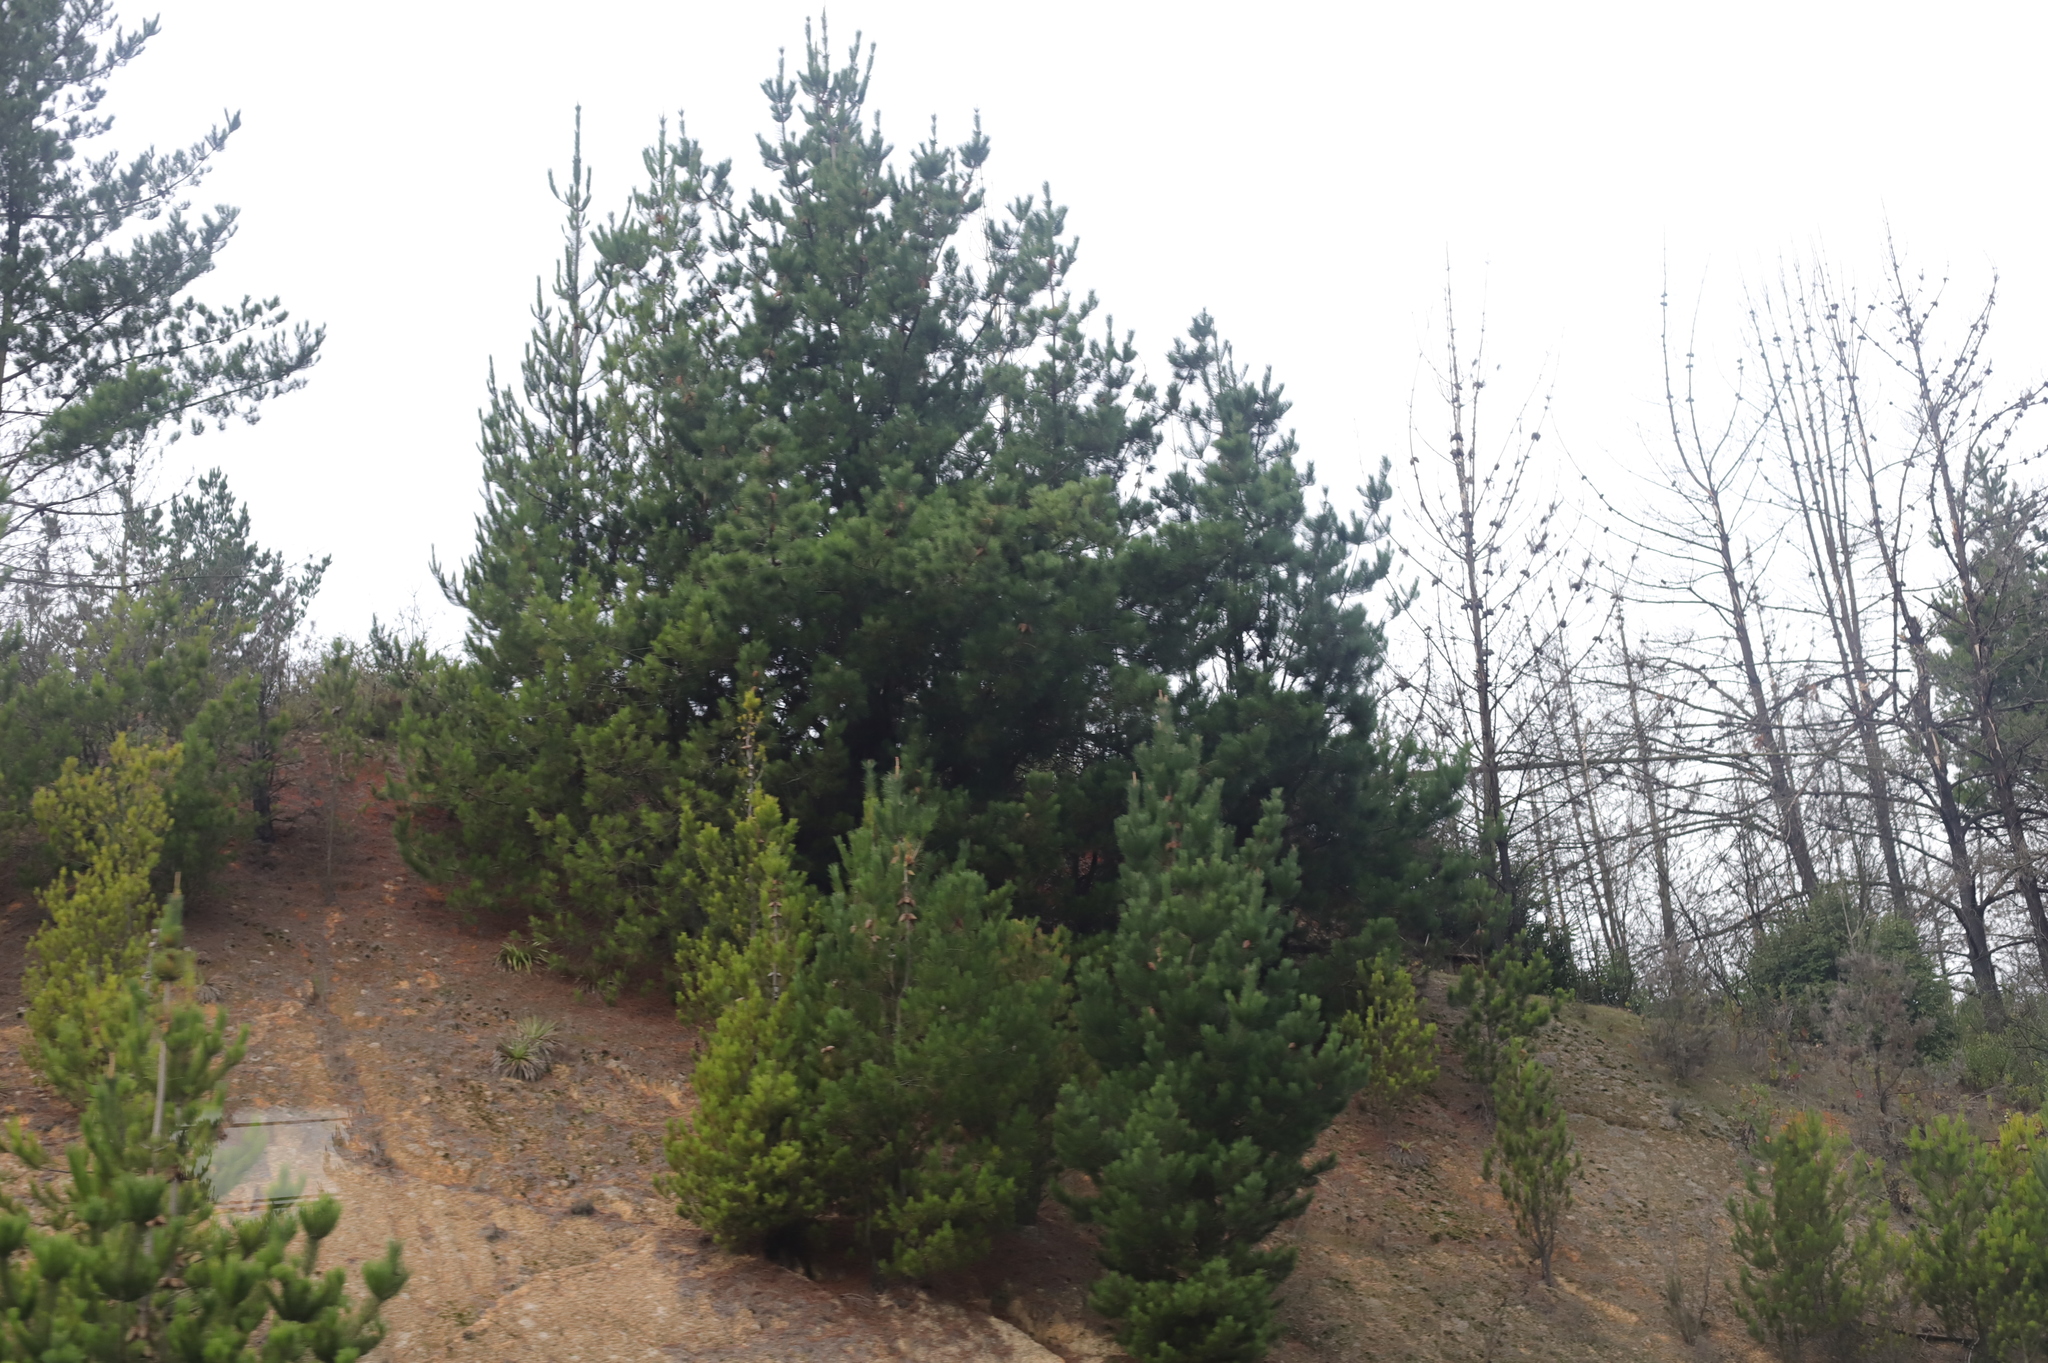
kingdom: Plantae
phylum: Tracheophyta
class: Pinopsida
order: Pinales
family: Pinaceae
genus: Pinus
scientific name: Pinus radiata
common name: Monterey pine
